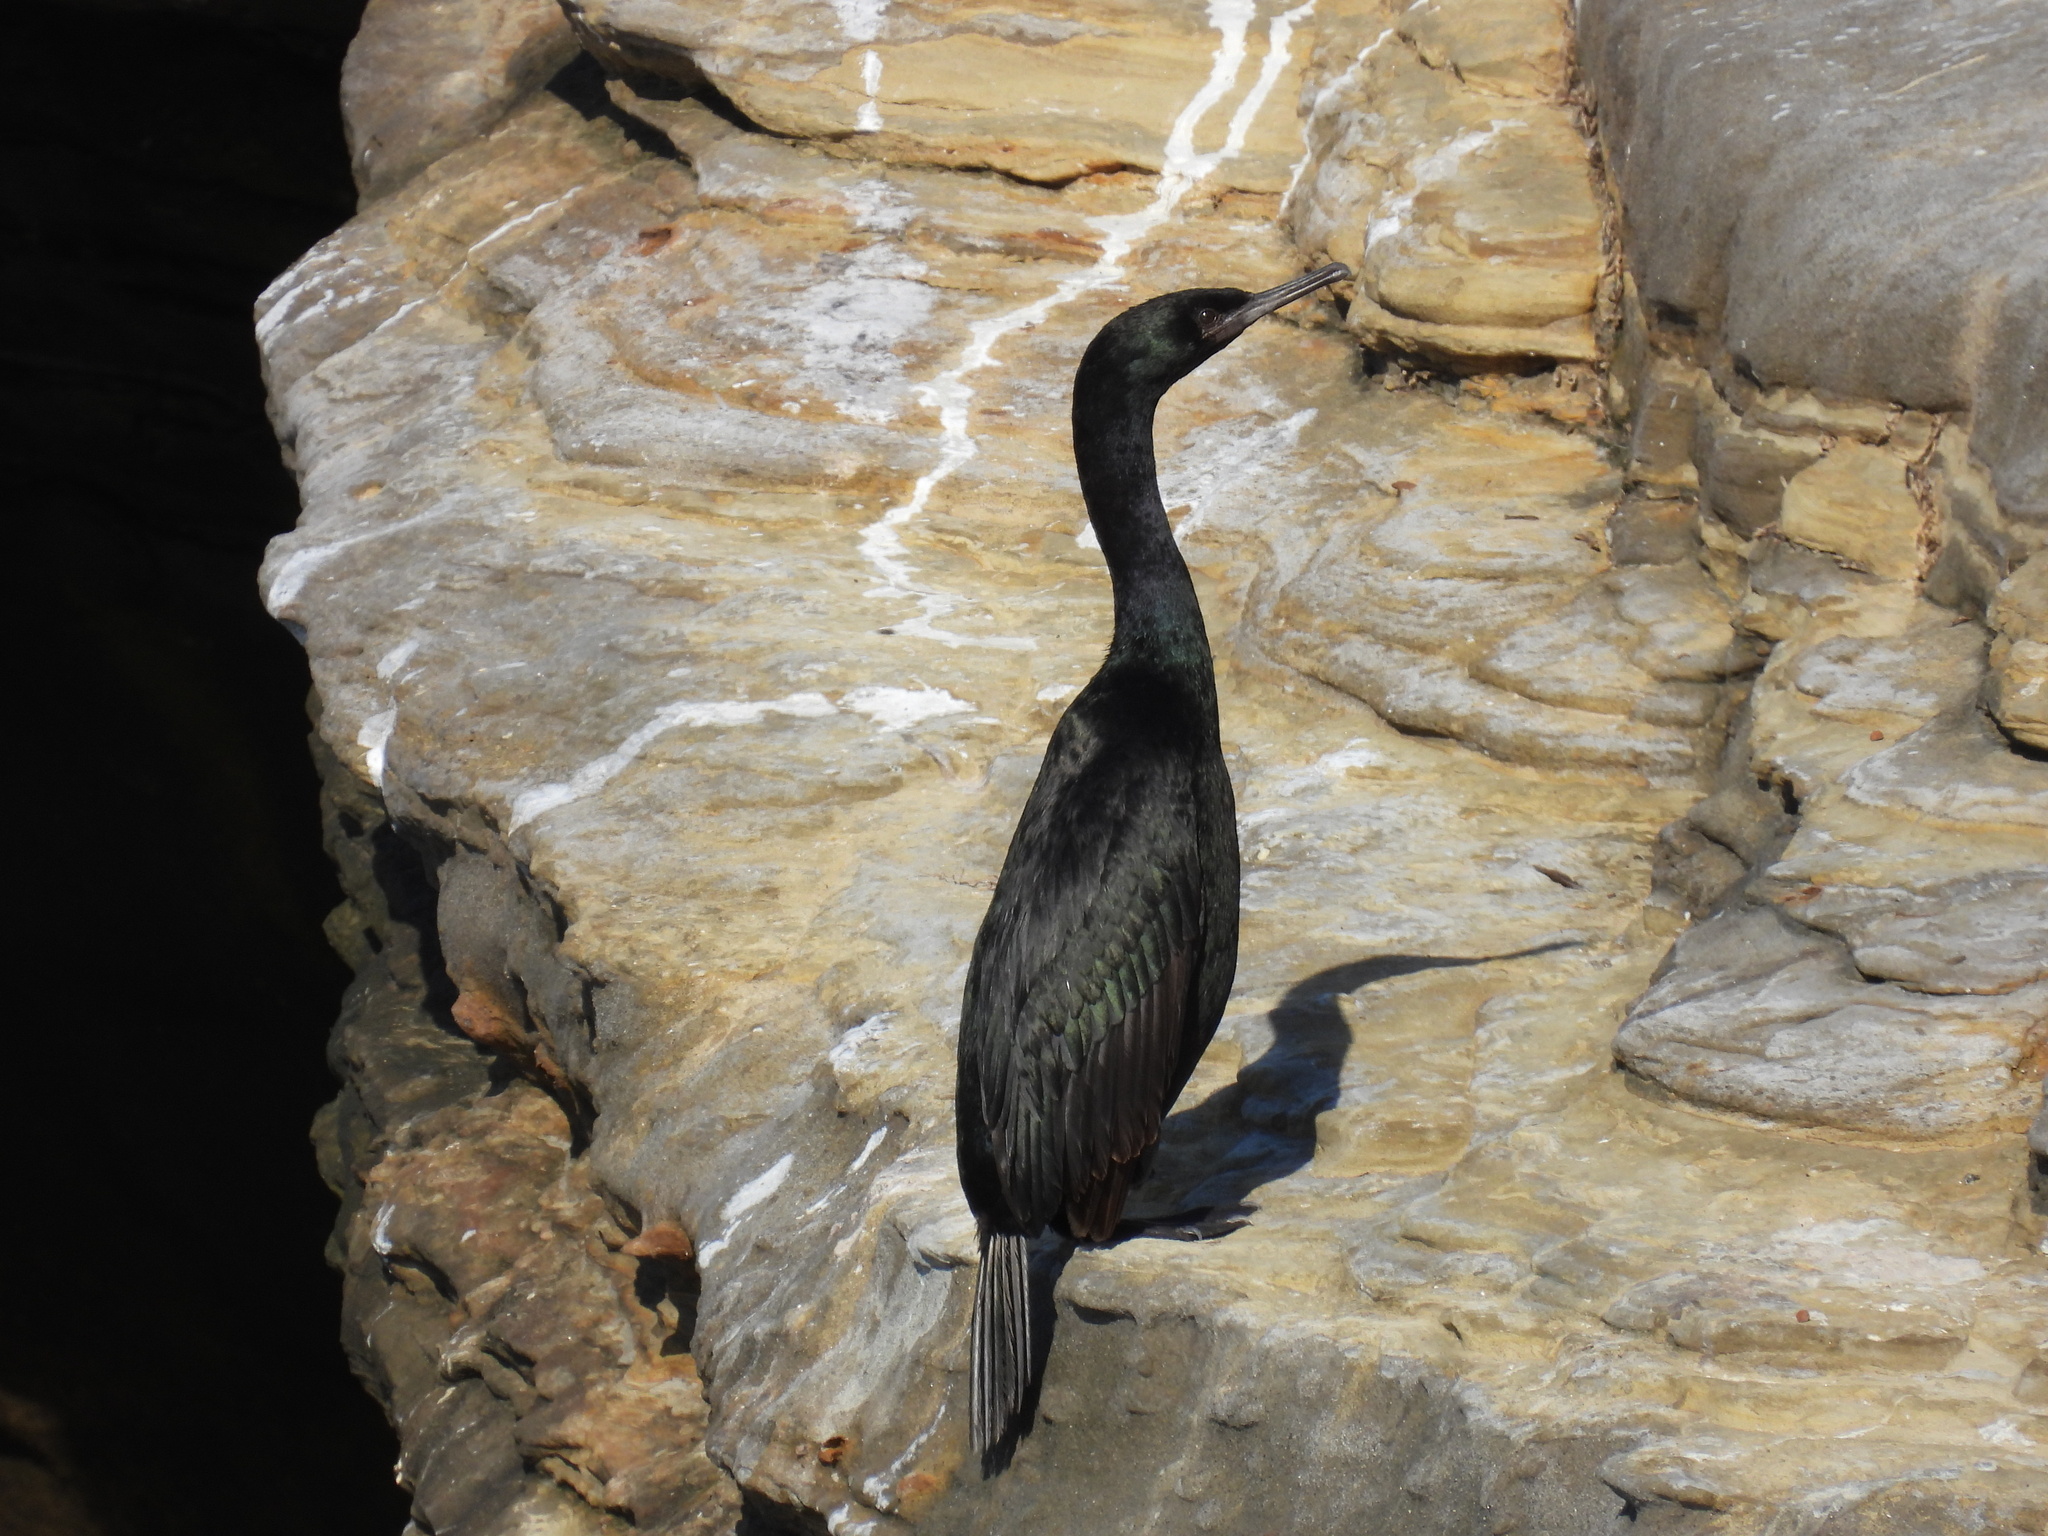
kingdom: Animalia
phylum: Chordata
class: Aves
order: Suliformes
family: Phalacrocoracidae
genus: Phalacrocorax
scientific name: Phalacrocorax pelagicus
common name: Pelagic cormorant
